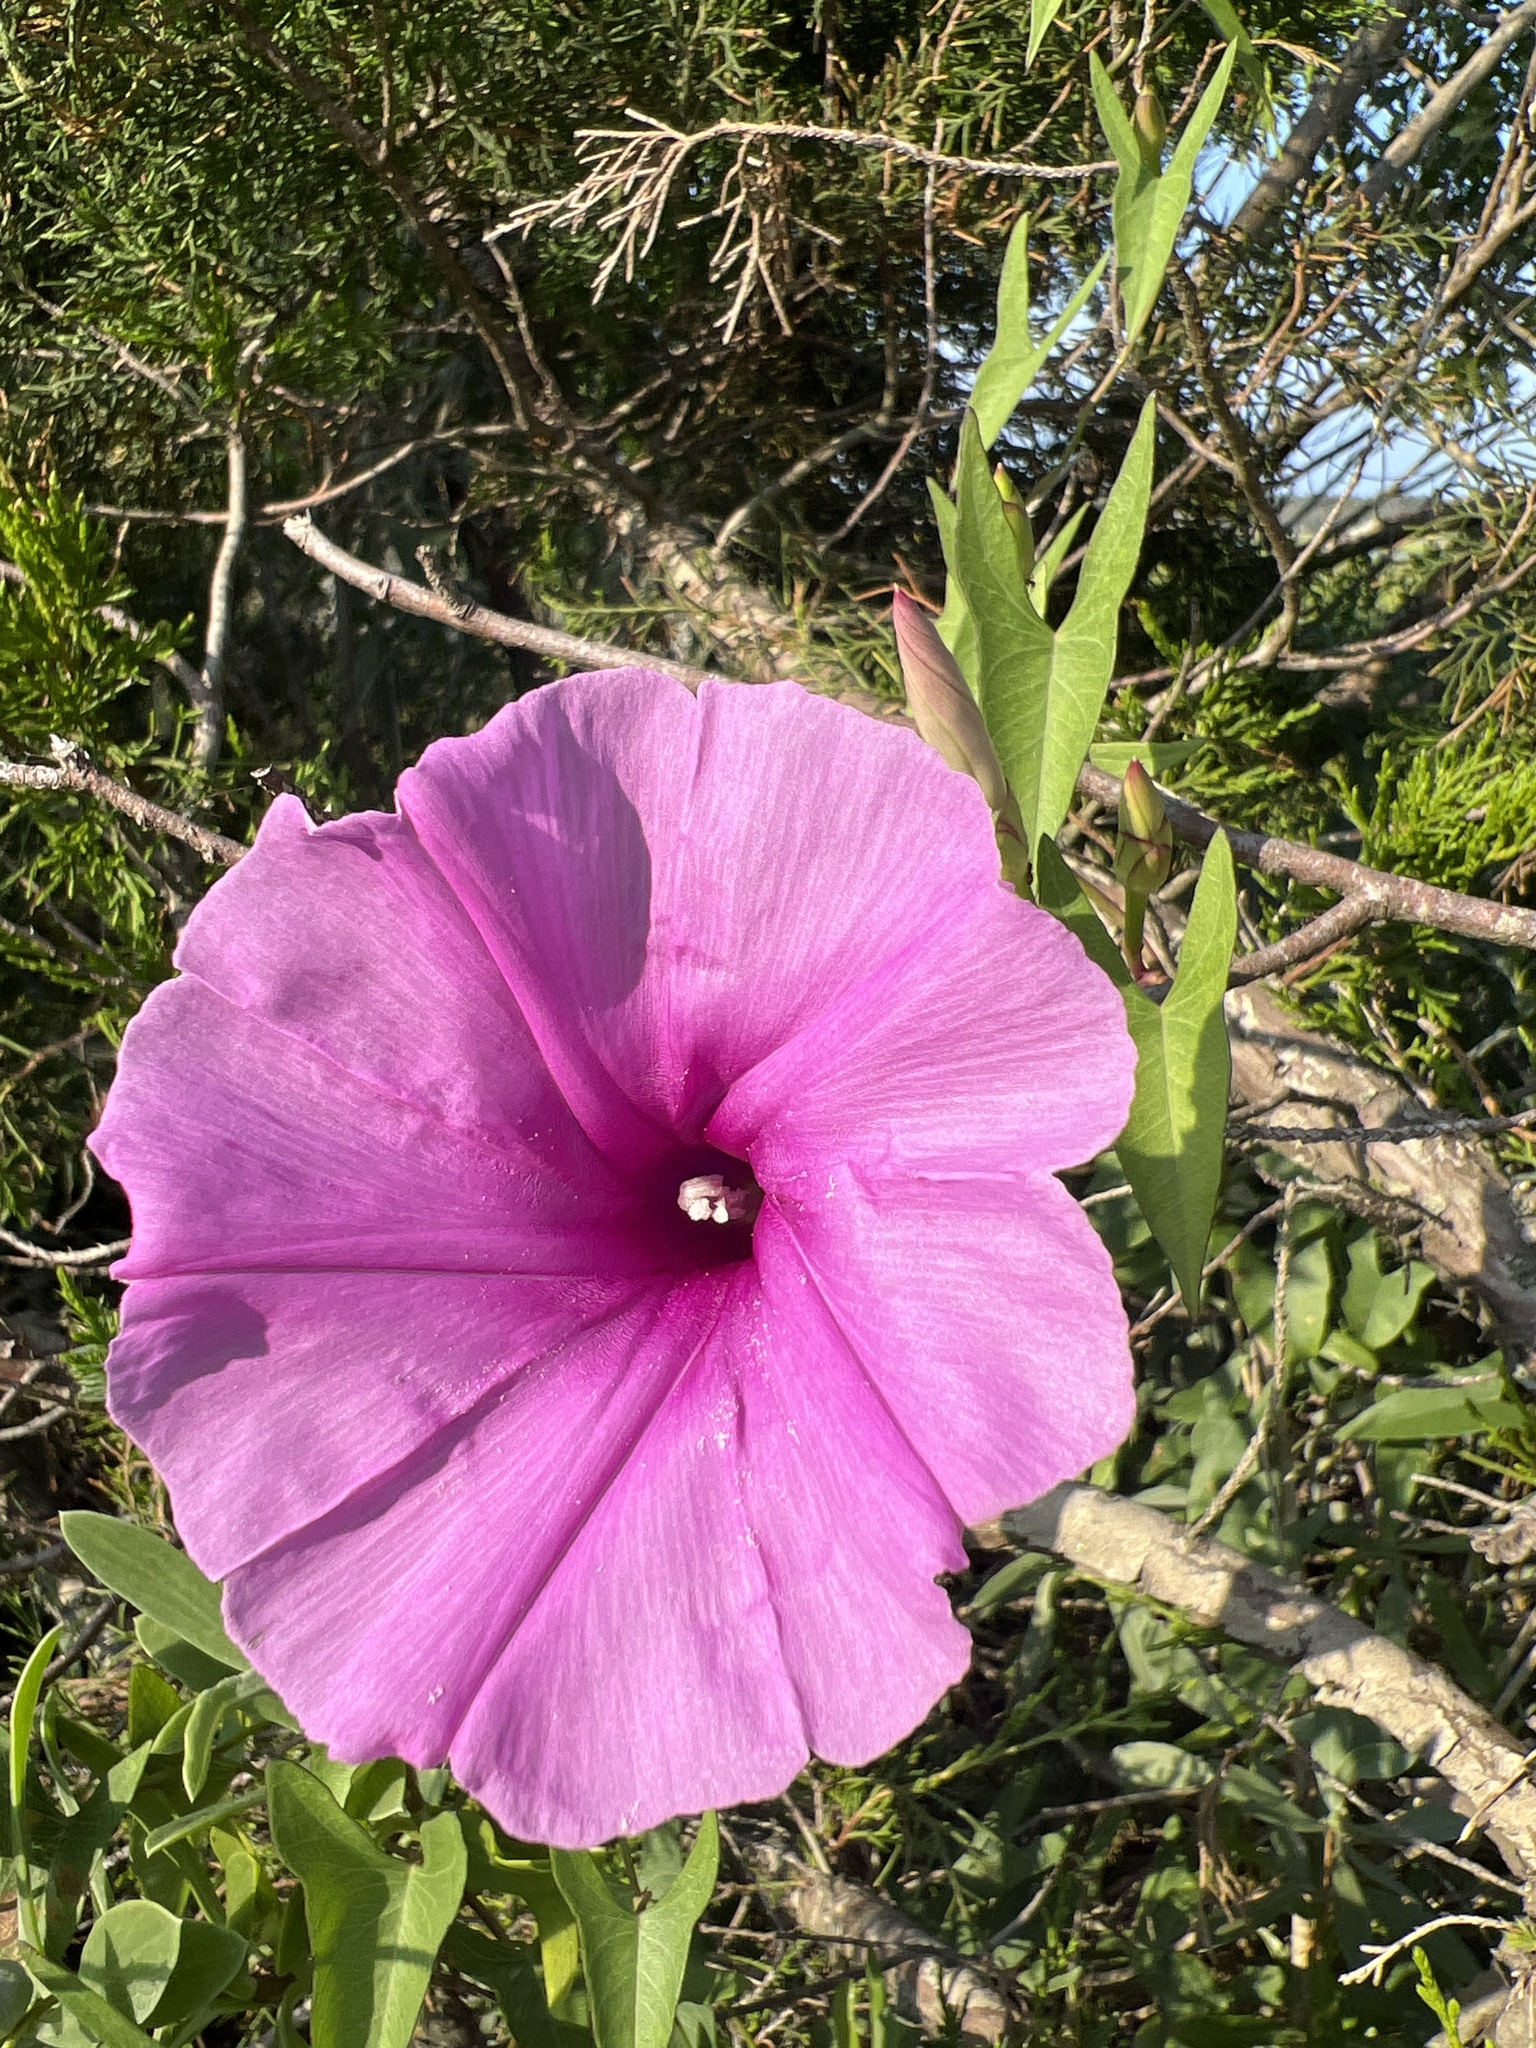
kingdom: Plantae
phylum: Tracheophyta
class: Magnoliopsida
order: Solanales
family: Convolvulaceae
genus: Ipomoea
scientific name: Ipomoea sagittata
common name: Saltmarsh morning glory
